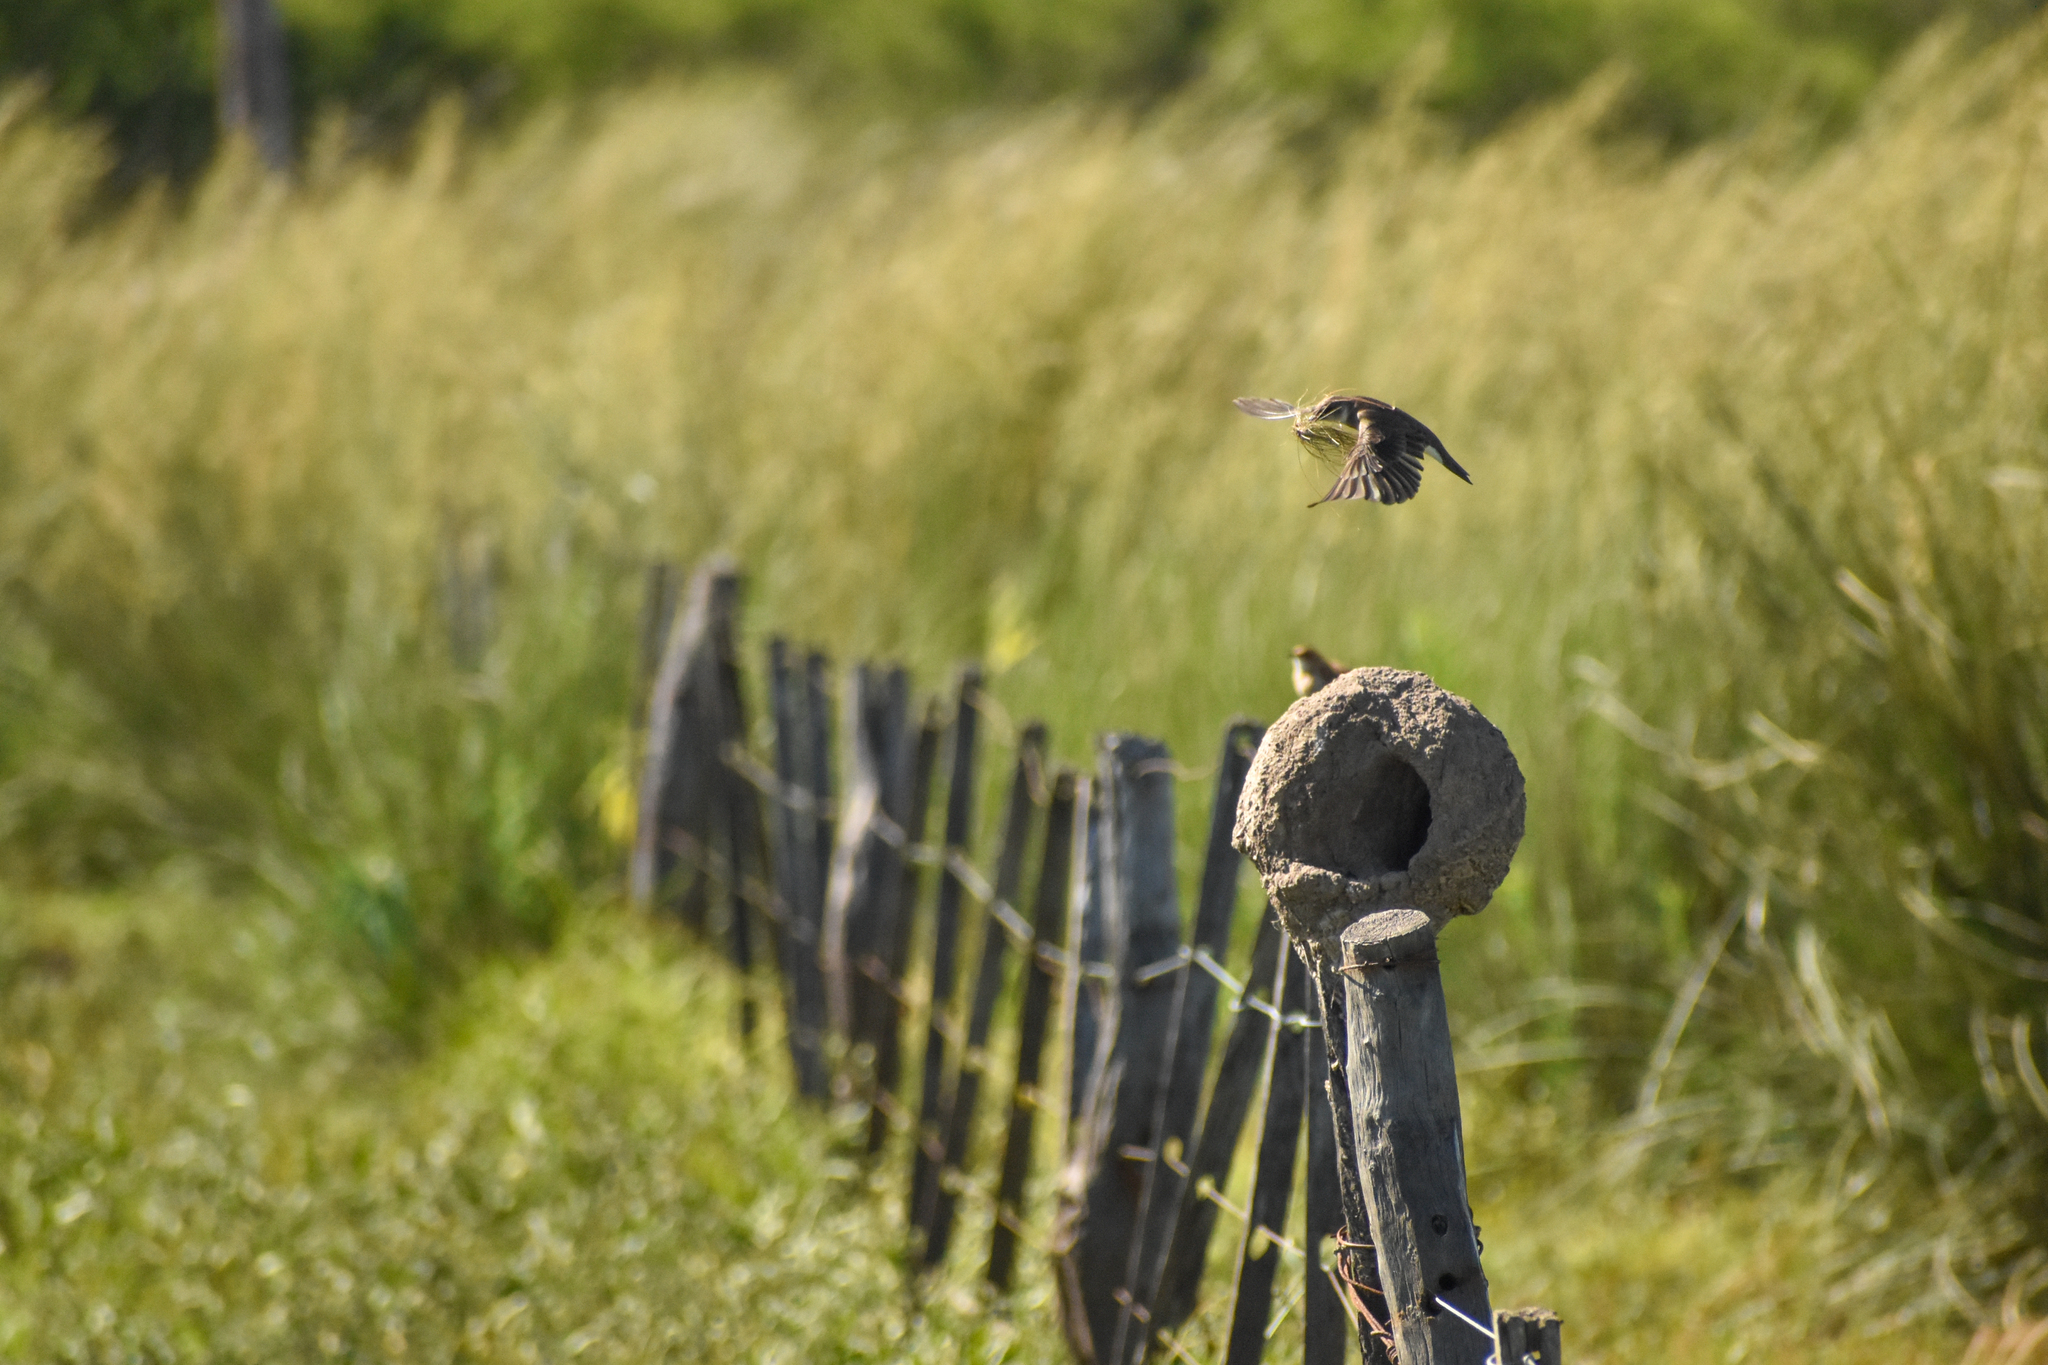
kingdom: Animalia
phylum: Chordata
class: Aves
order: Passeriformes
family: Hirundinidae
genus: Progne
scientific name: Progne tapera
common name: Brown-chested martin
